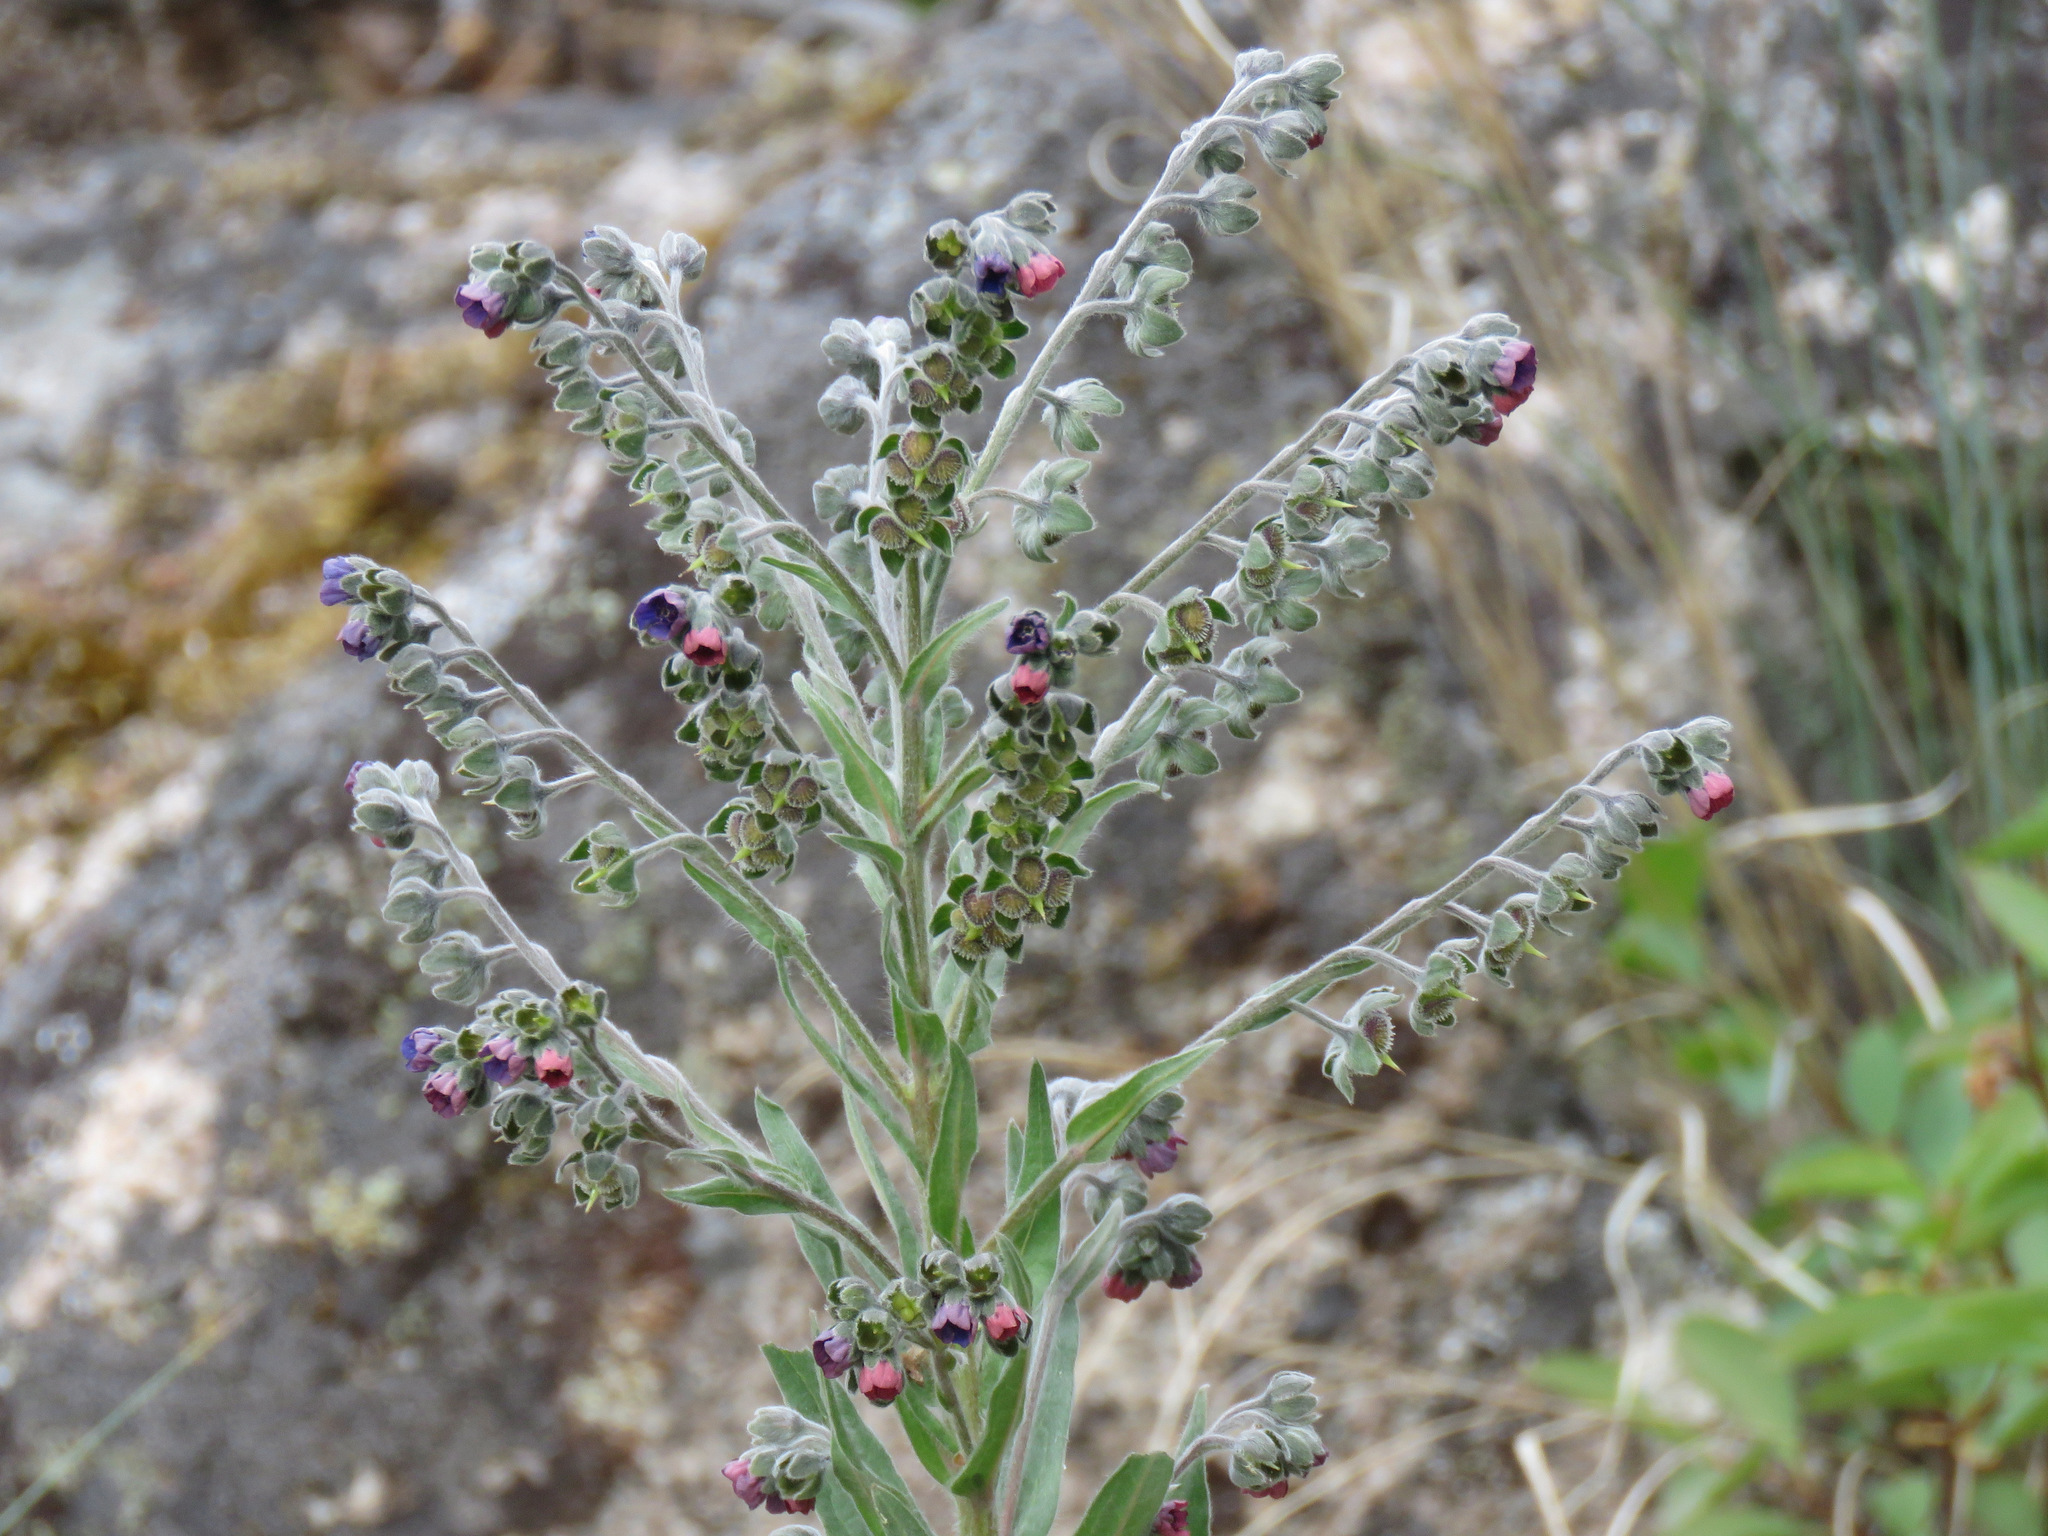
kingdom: Plantae
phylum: Tracheophyta
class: Magnoliopsida
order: Boraginales
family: Boraginaceae
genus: Cynoglossum
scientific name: Cynoglossum officinale
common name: Hound's-tongue
